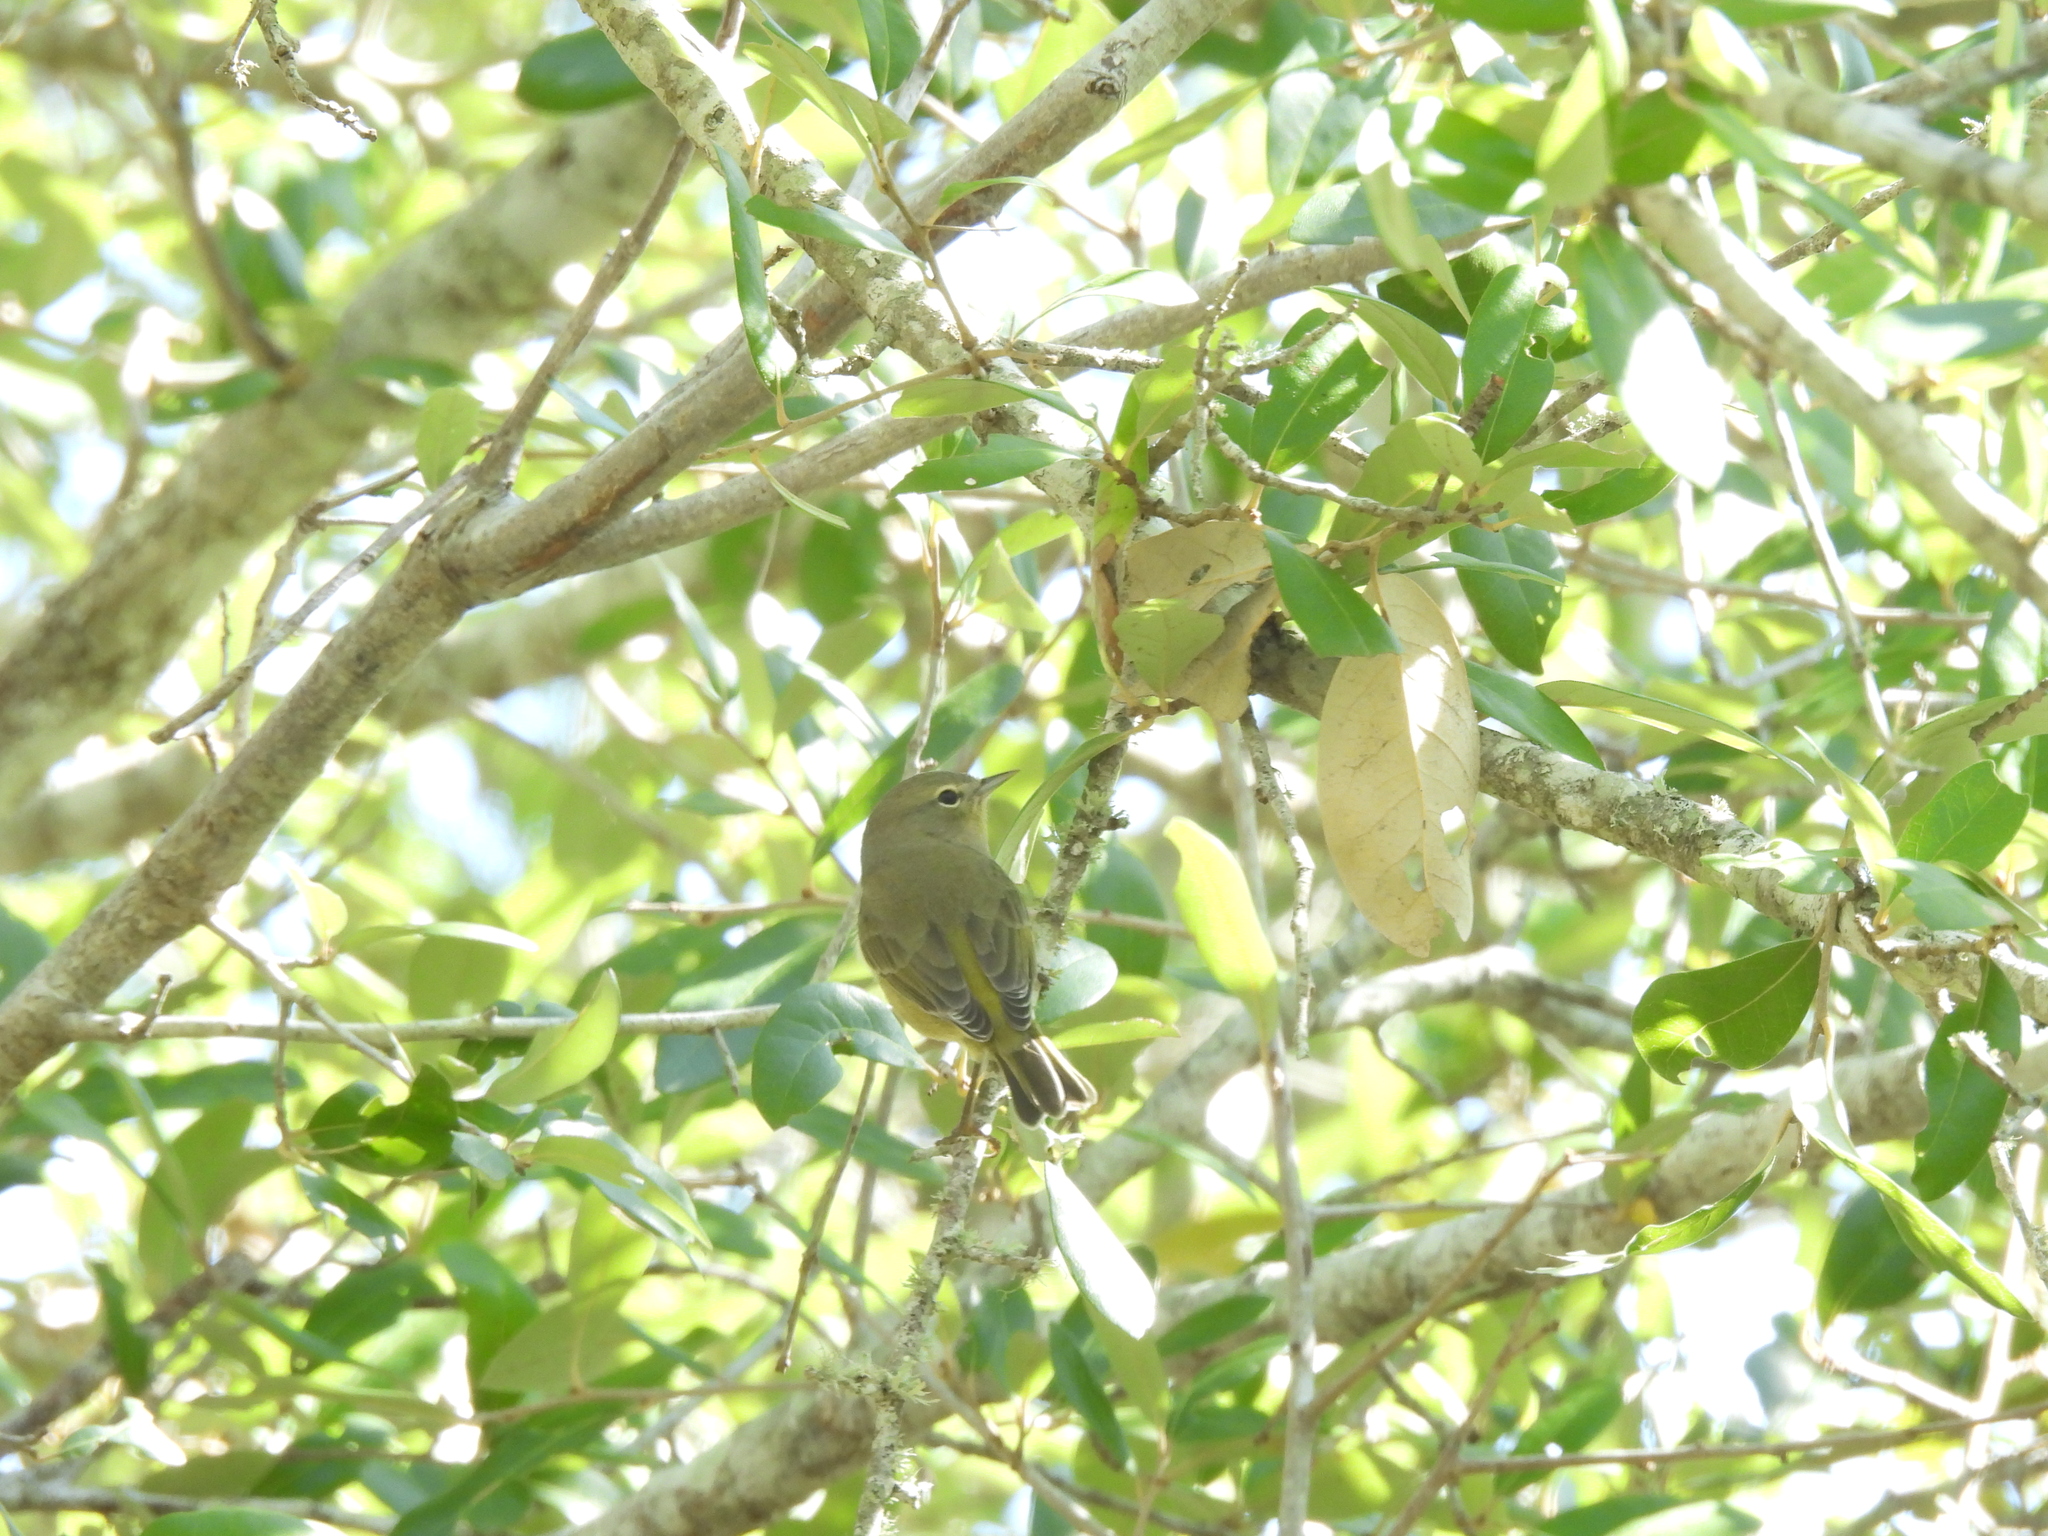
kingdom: Animalia
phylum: Chordata
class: Aves
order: Passeriformes
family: Parulidae
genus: Leiothlypis
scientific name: Leiothlypis celata
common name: Orange-crowned warbler
